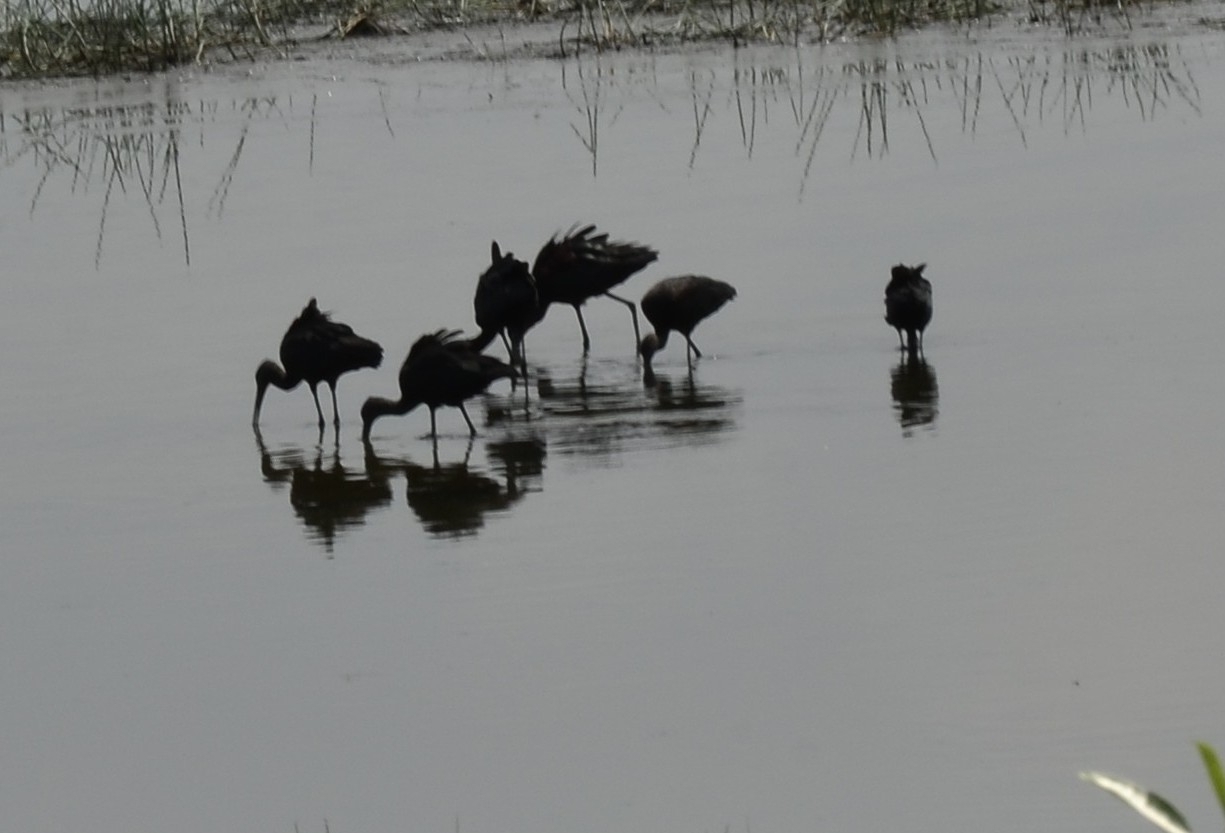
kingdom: Animalia
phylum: Chordata
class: Aves
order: Pelecaniformes
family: Threskiornithidae
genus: Plegadis
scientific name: Plegadis falcinellus
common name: Glossy ibis
